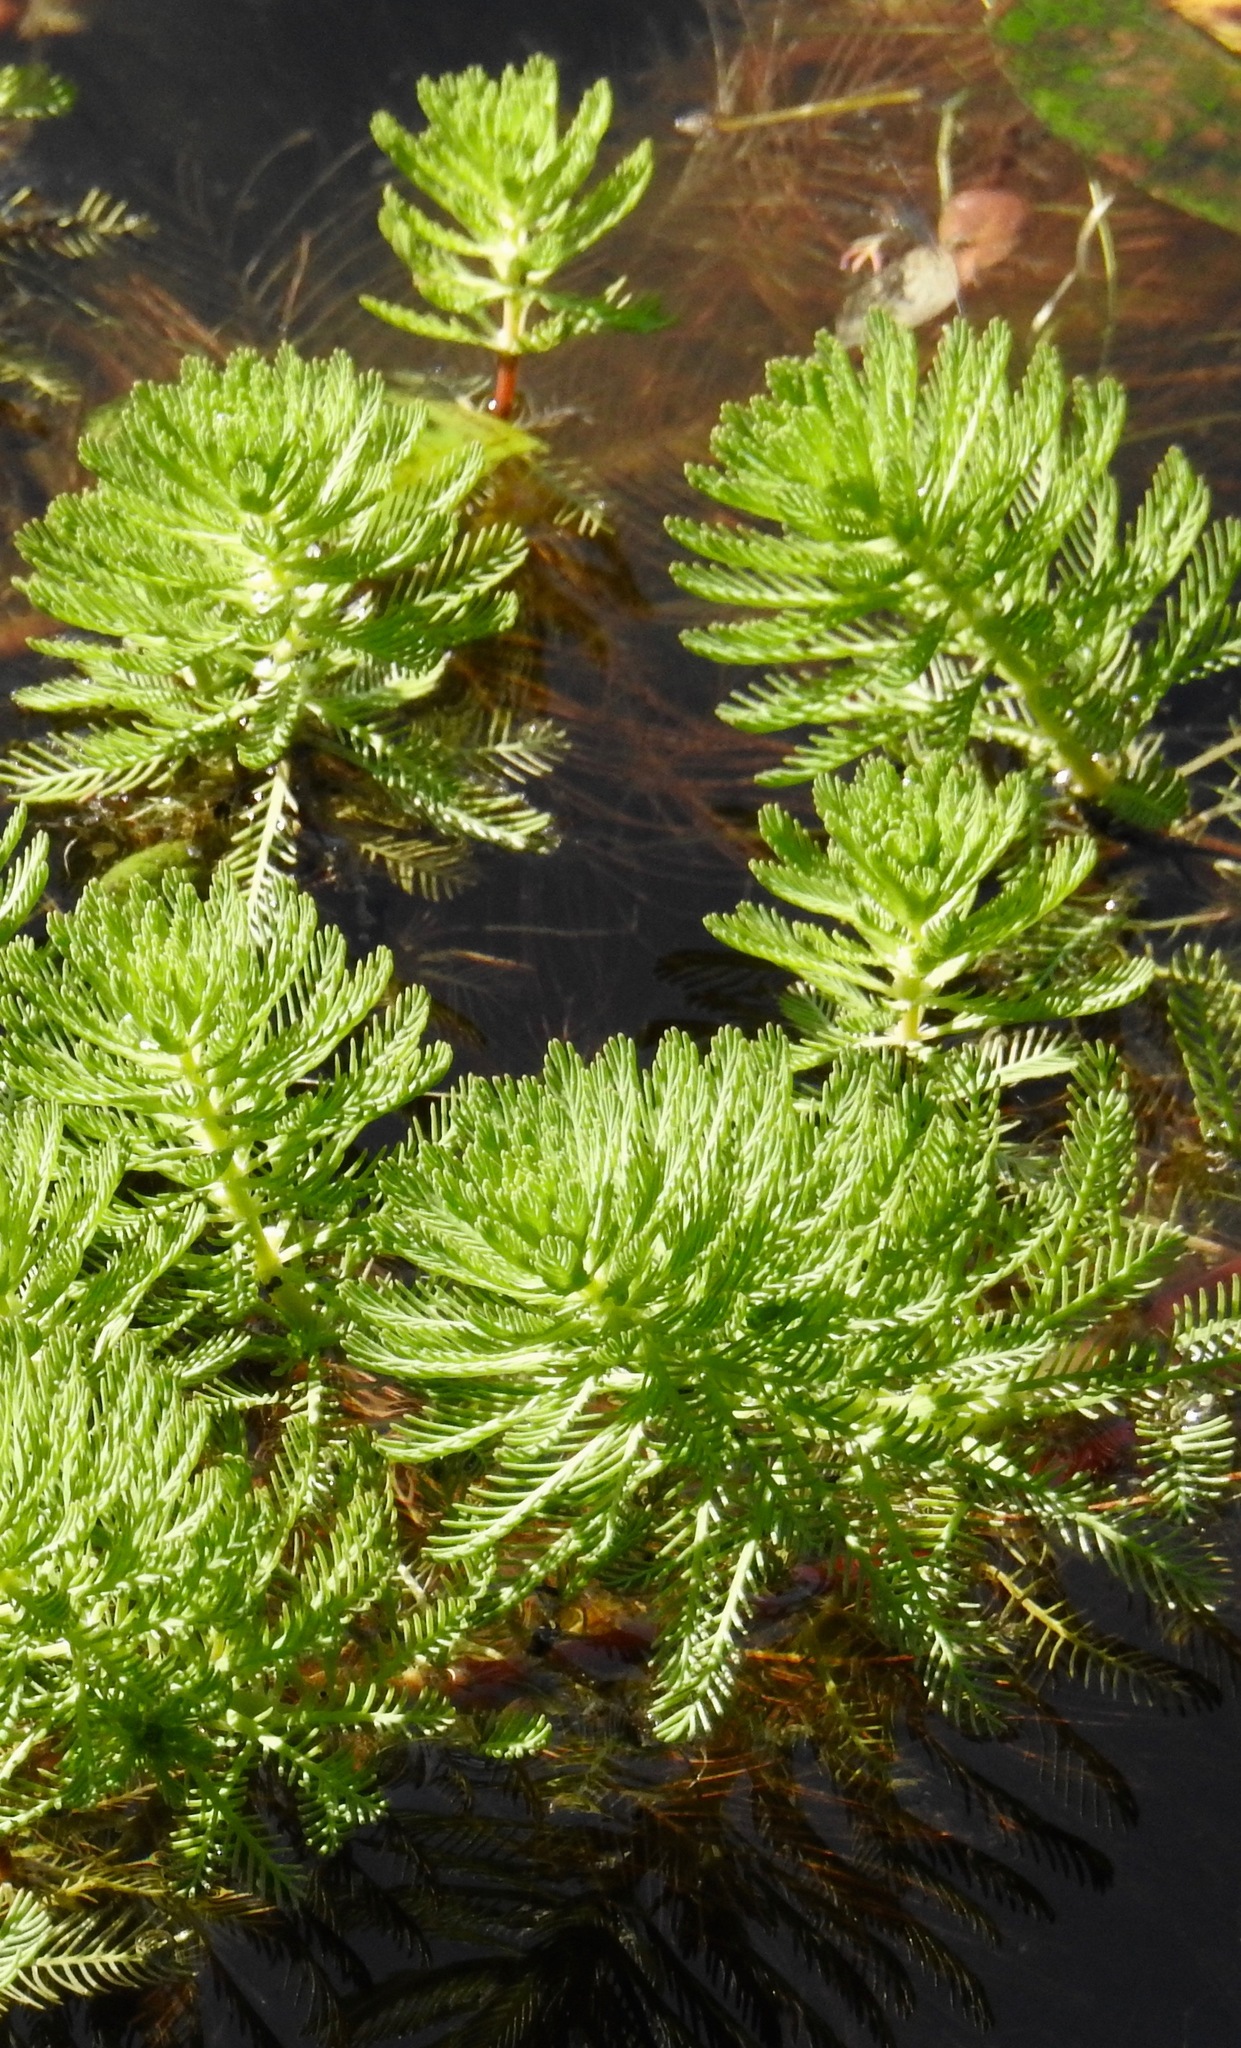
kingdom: Plantae
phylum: Tracheophyta
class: Magnoliopsida
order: Saxifragales
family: Haloragaceae
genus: Myriophyllum
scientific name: Myriophyllum aquaticum
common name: Parrot's feather
